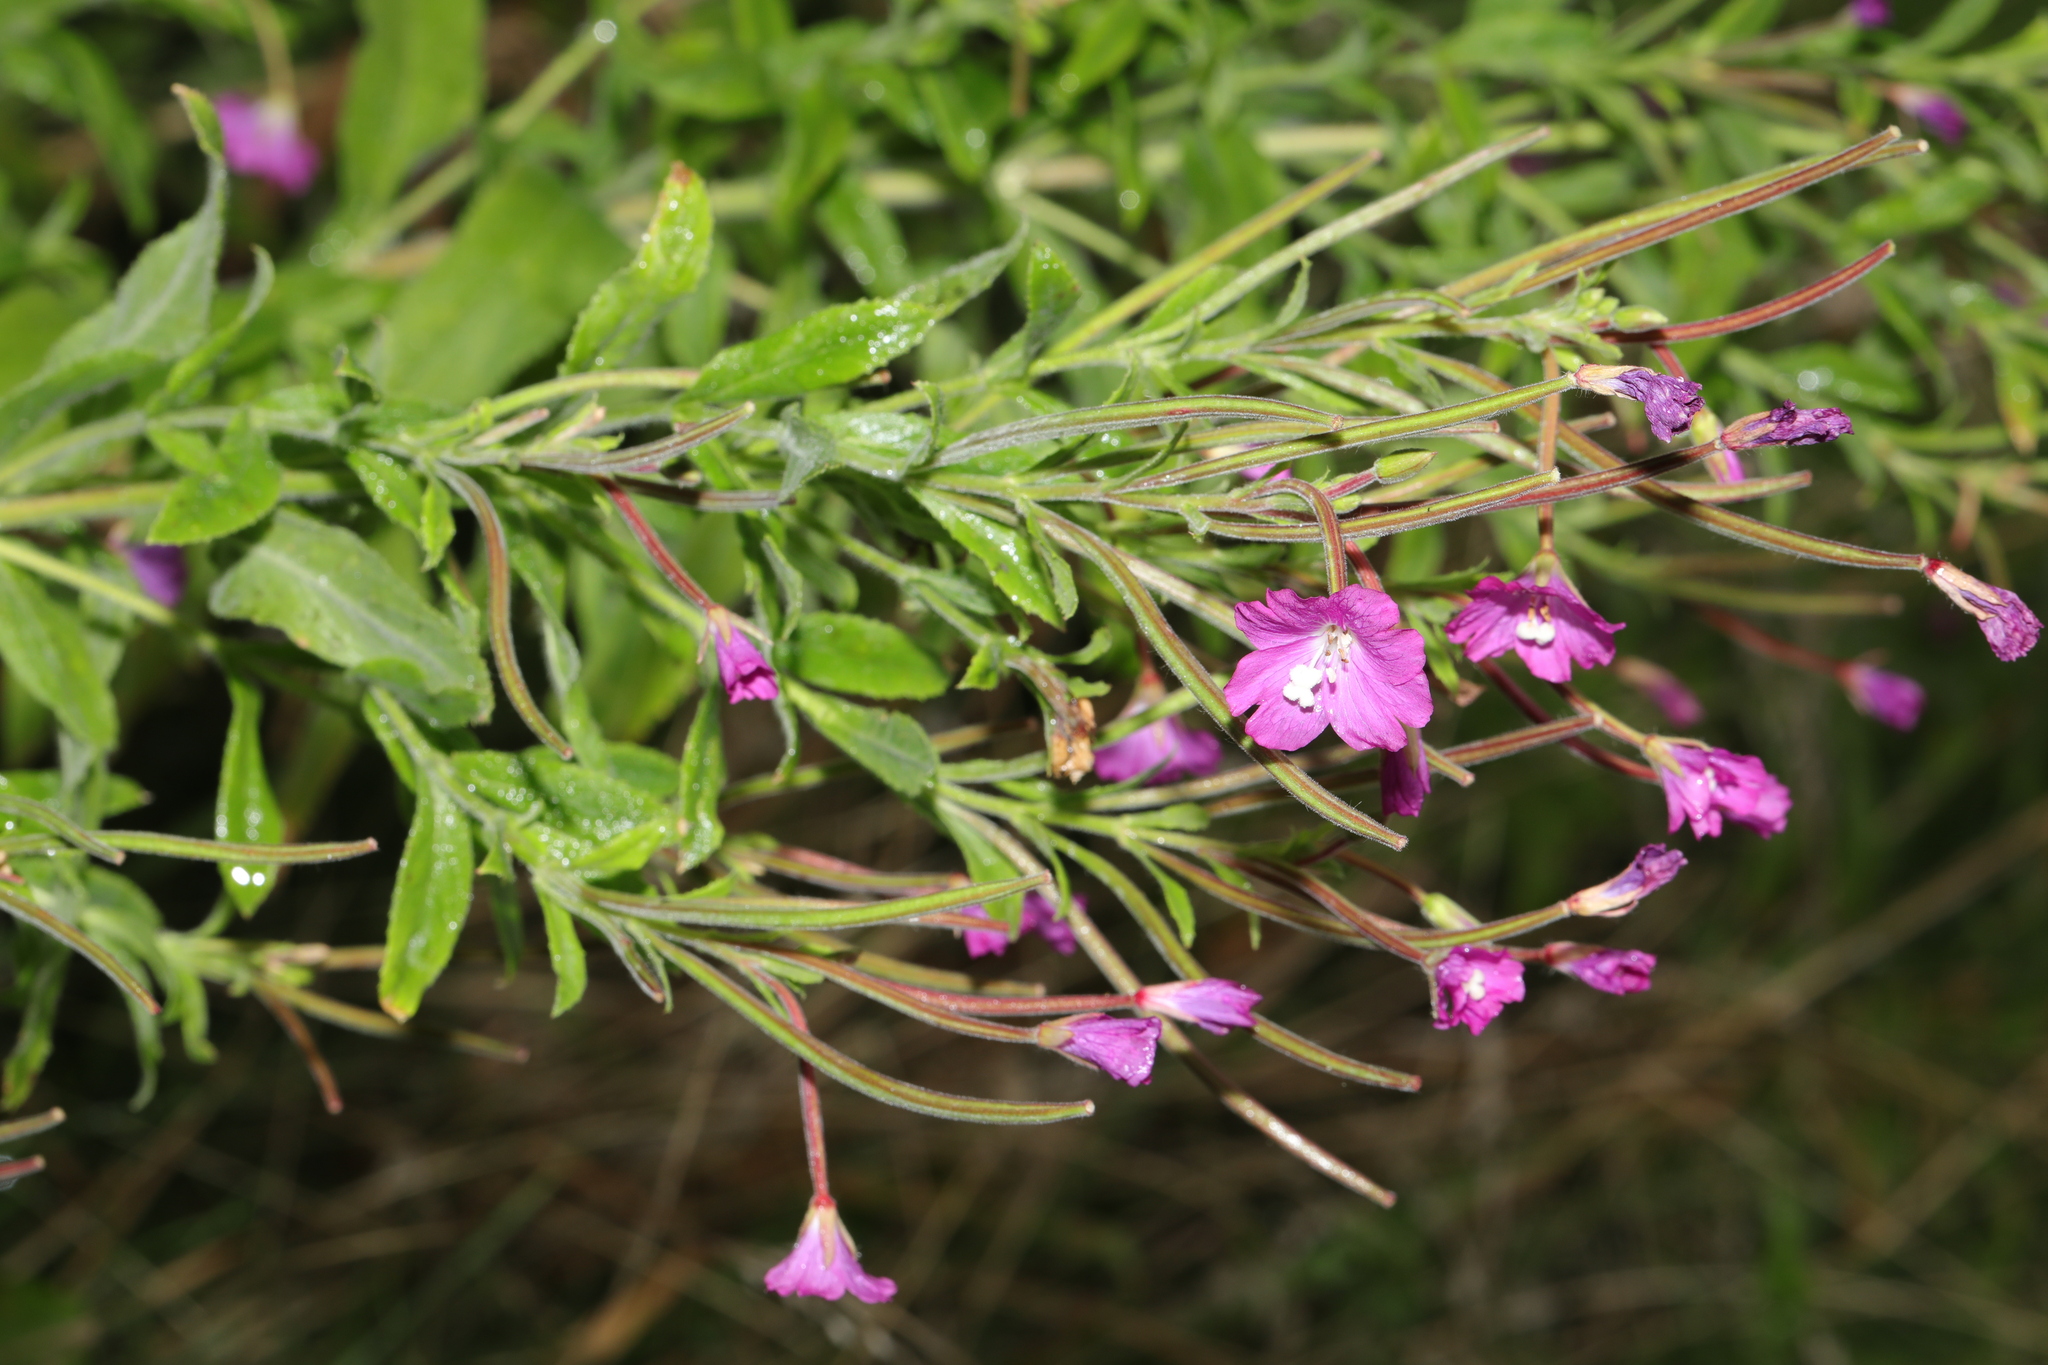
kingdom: Plantae
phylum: Tracheophyta
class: Magnoliopsida
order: Myrtales
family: Onagraceae
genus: Epilobium
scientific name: Epilobium hirsutum
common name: Great willowherb
